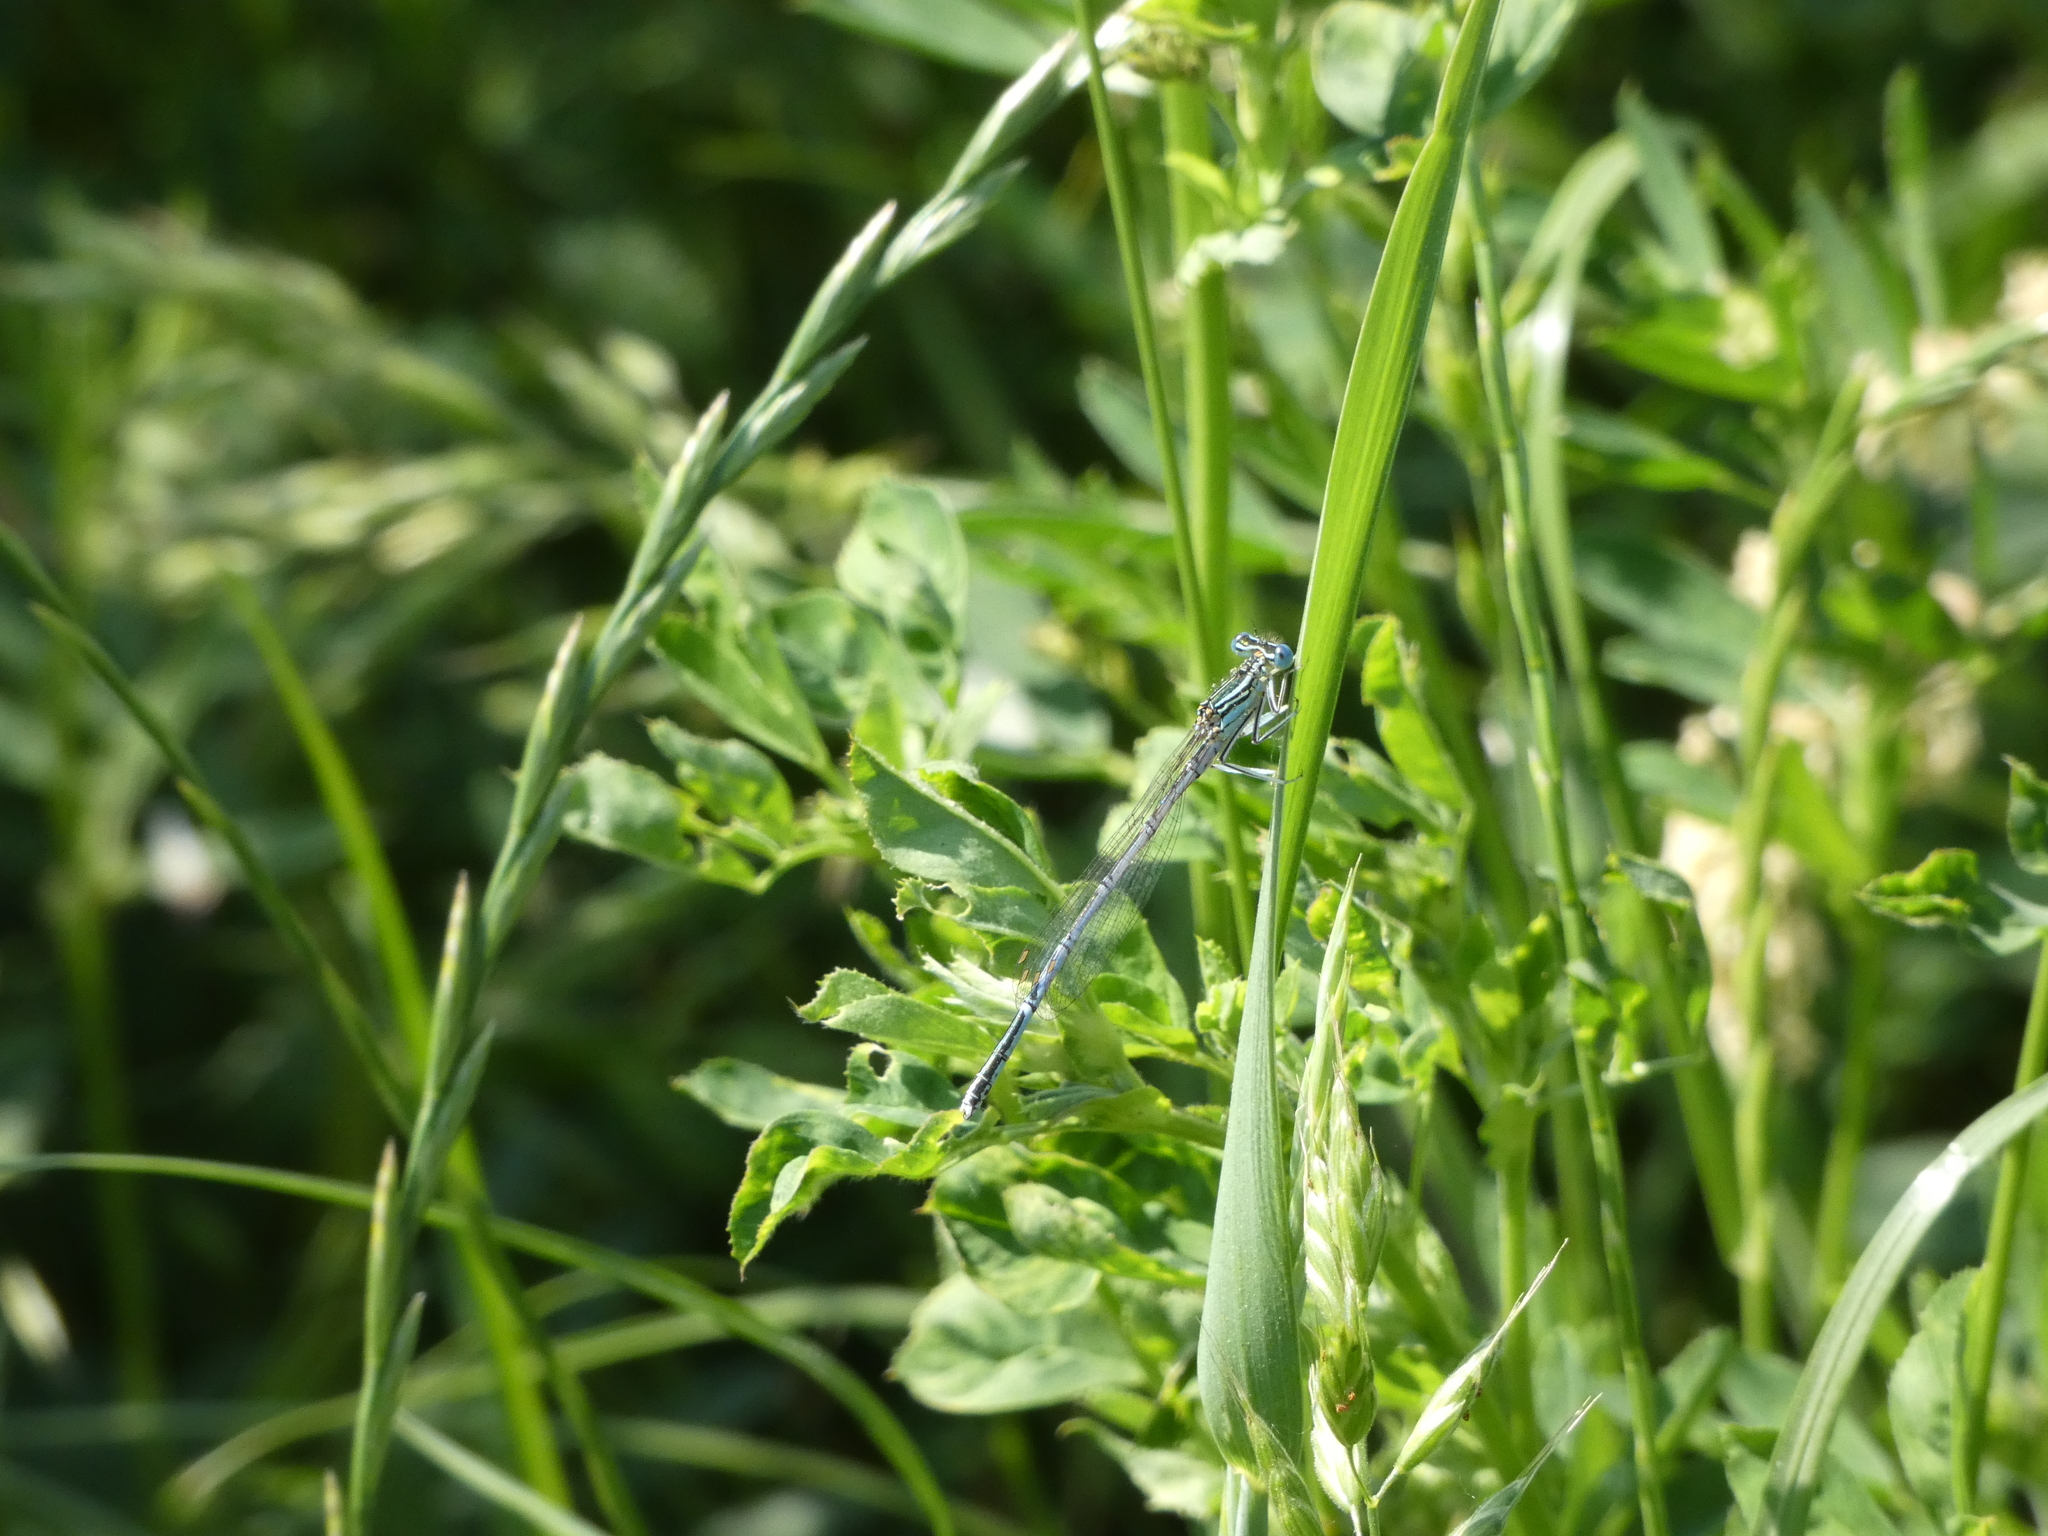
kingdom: Animalia
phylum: Arthropoda
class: Insecta
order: Odonata
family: Platycnemididae
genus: Platycnemis
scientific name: Platycnemis pennipes
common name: White-legged damselfly
